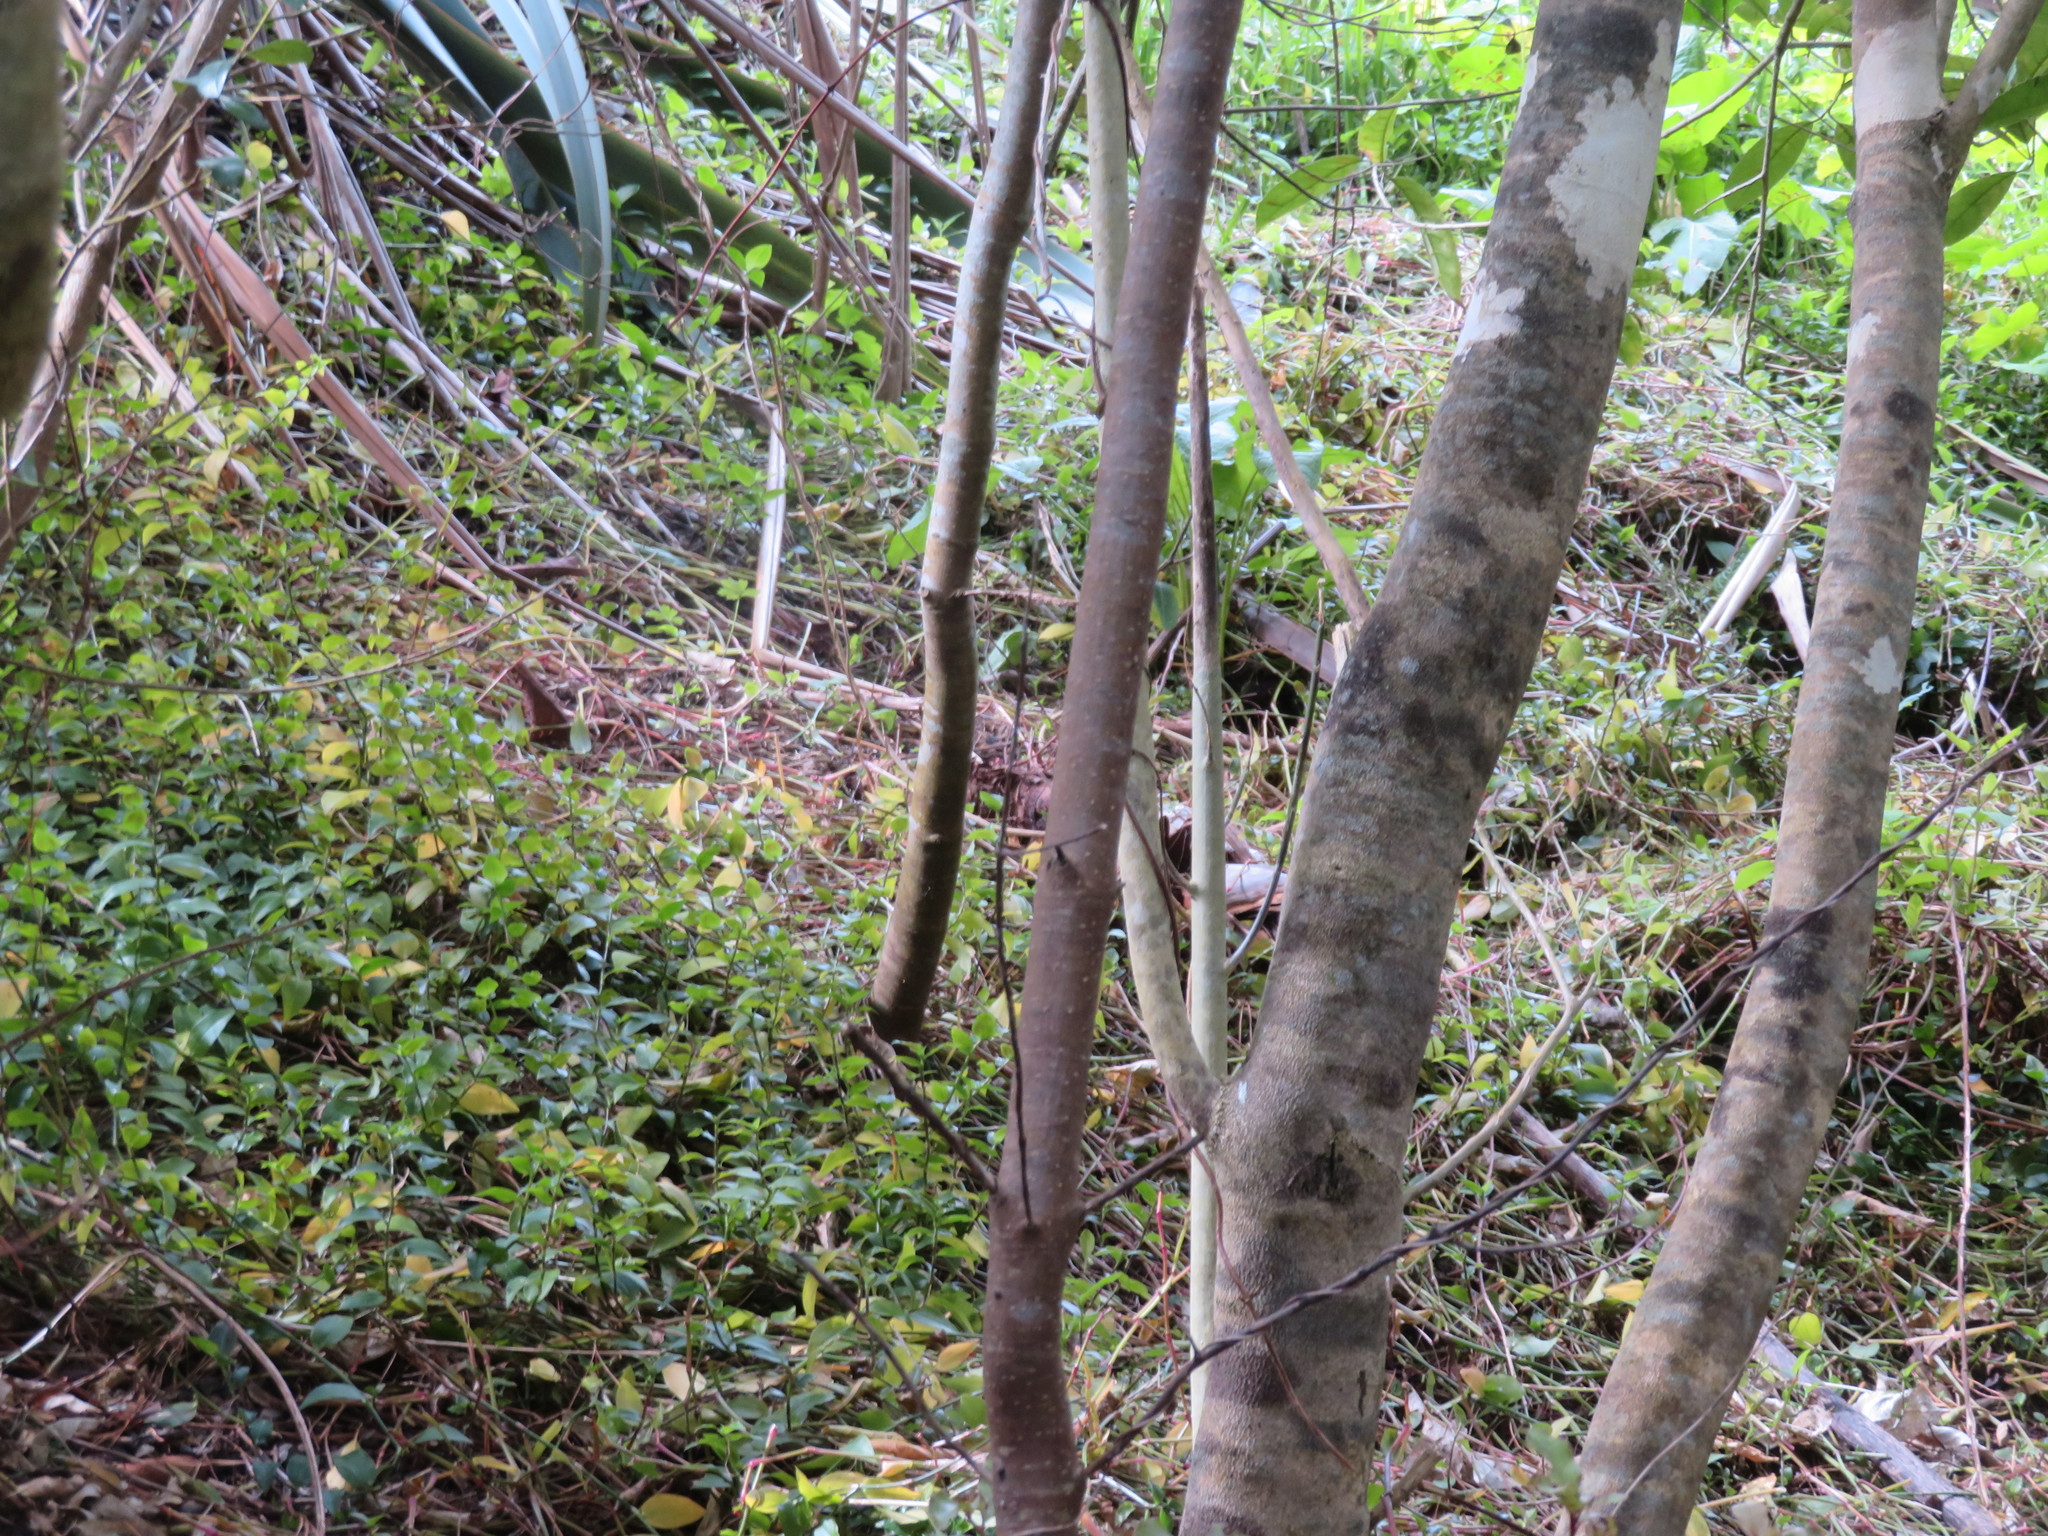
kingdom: Plantae
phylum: Tracheophyta
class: Liliopsida
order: Commelinales
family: Commelinaceae
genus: Tradescantia
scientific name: Tradescantia fluminensis
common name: Wandering-jew
